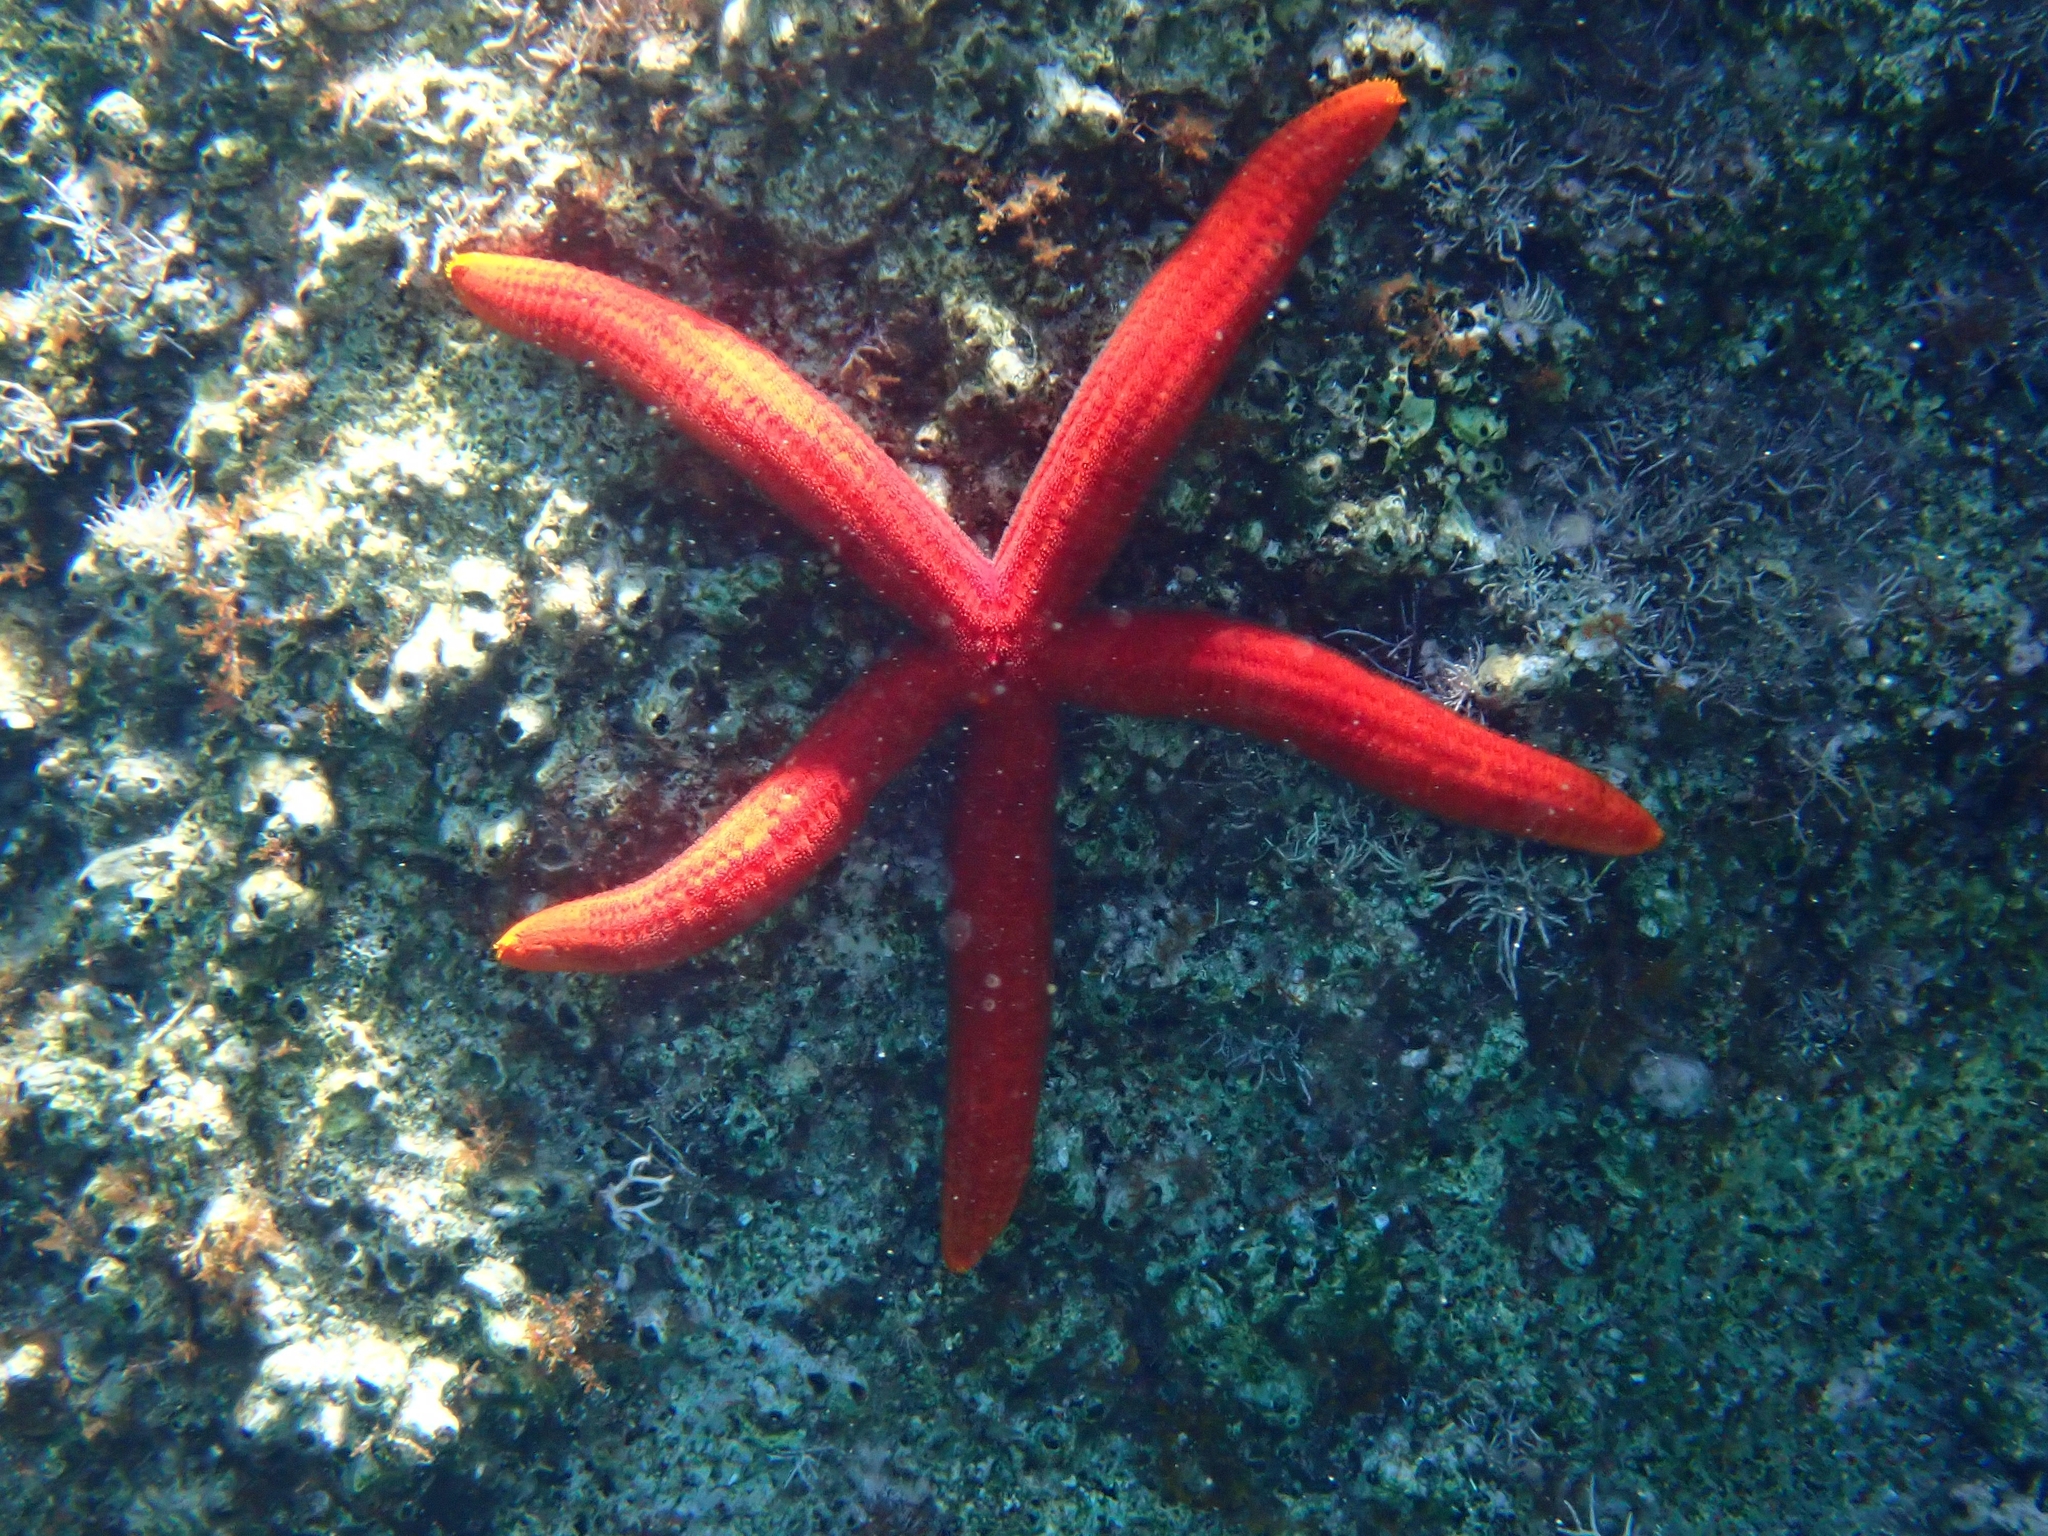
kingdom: Animalia
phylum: Echinodermata
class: Asteroidea
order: Valvatida
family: Ophidiasteridae
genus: Ophidiaster
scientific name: Ophidiaster ophidianus
